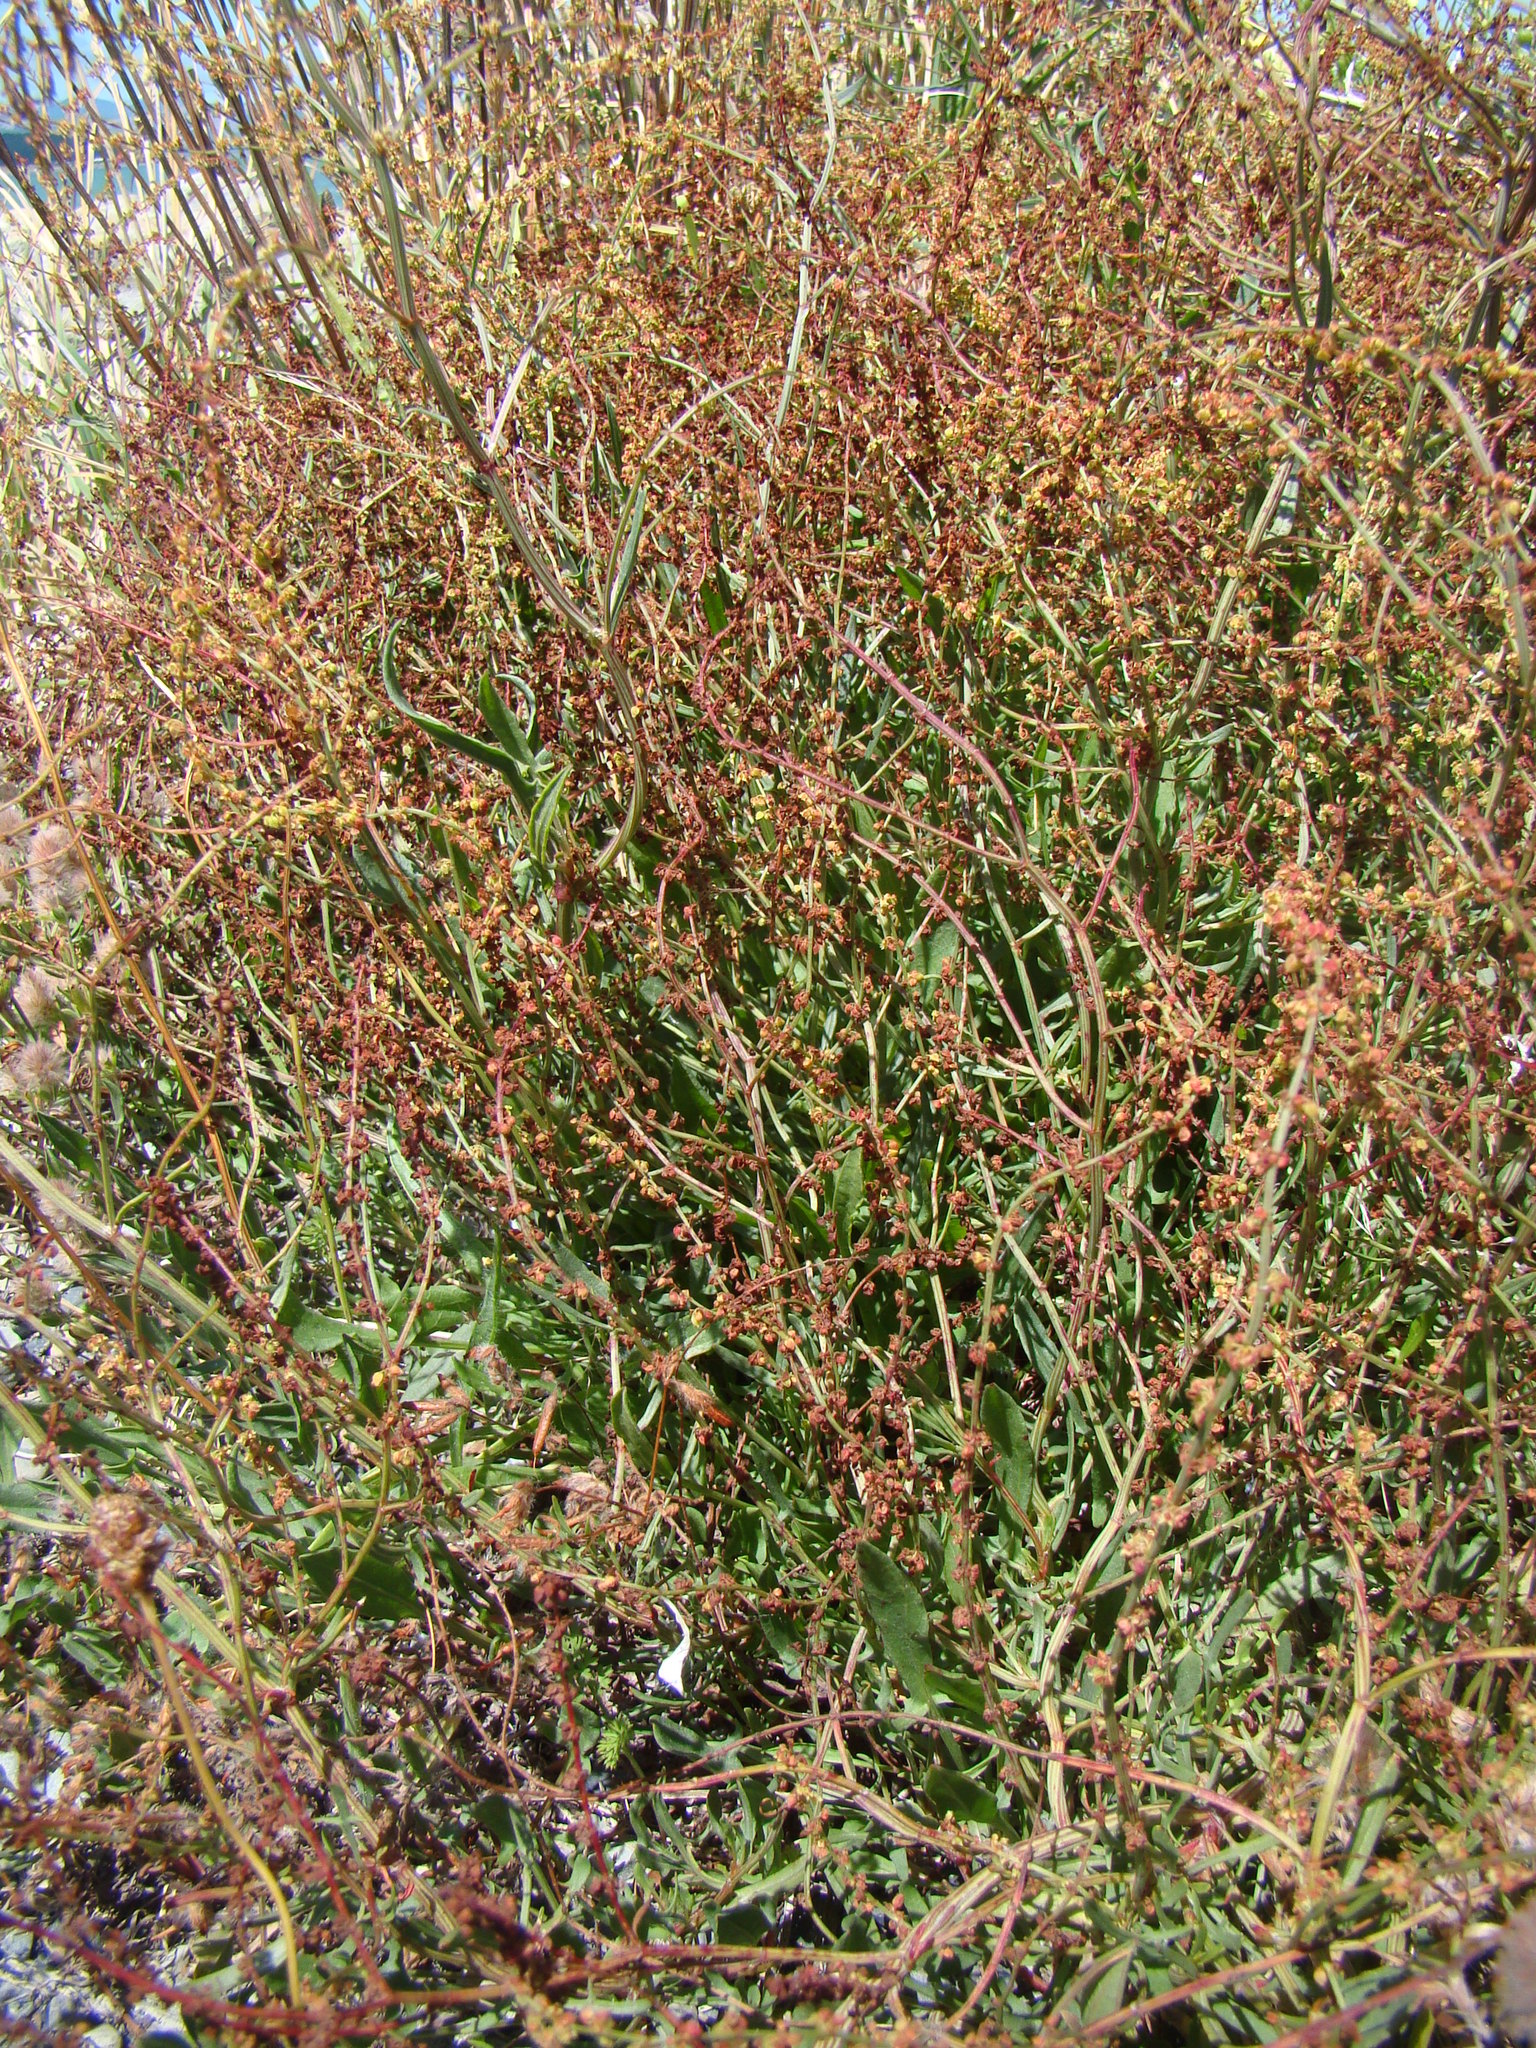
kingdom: Plantae
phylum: Tracheophyta
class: Magnoliopsida
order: Caryophyllales
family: Polygonaceae
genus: Rumex
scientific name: Rumex acetosella
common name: Common sheep sorrel
